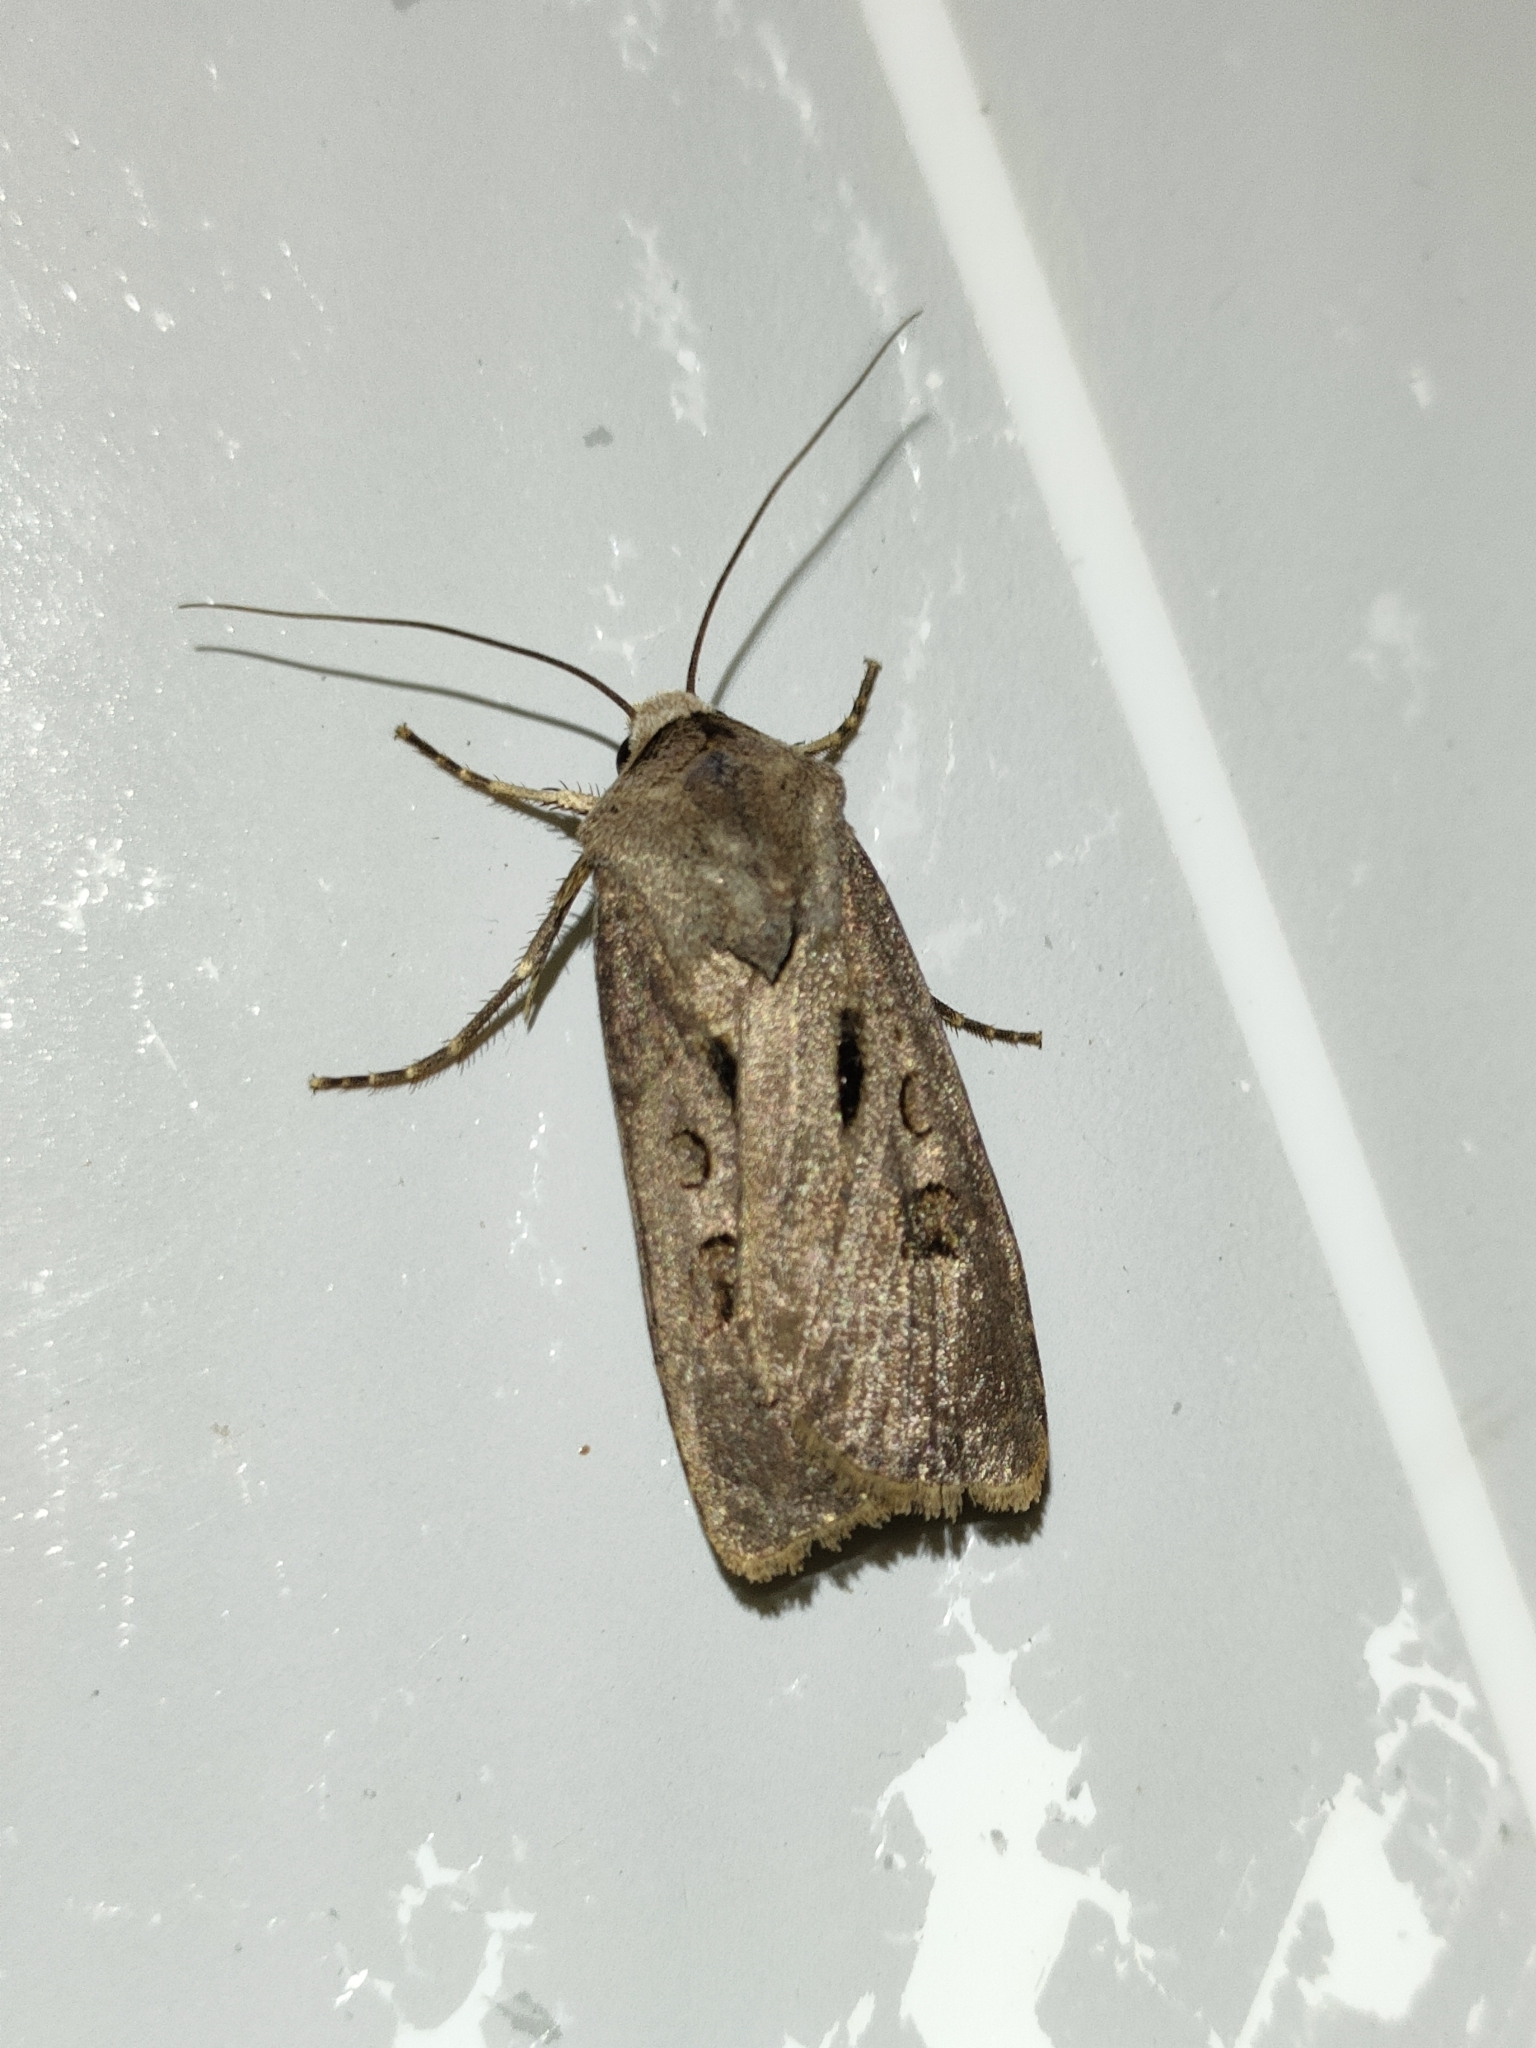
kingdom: Animalia
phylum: Arthropoda
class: Insecta
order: Lepidoptera
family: Noctuidae
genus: Agrotis
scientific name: Agrotis exclamationis
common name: Heart and dart
